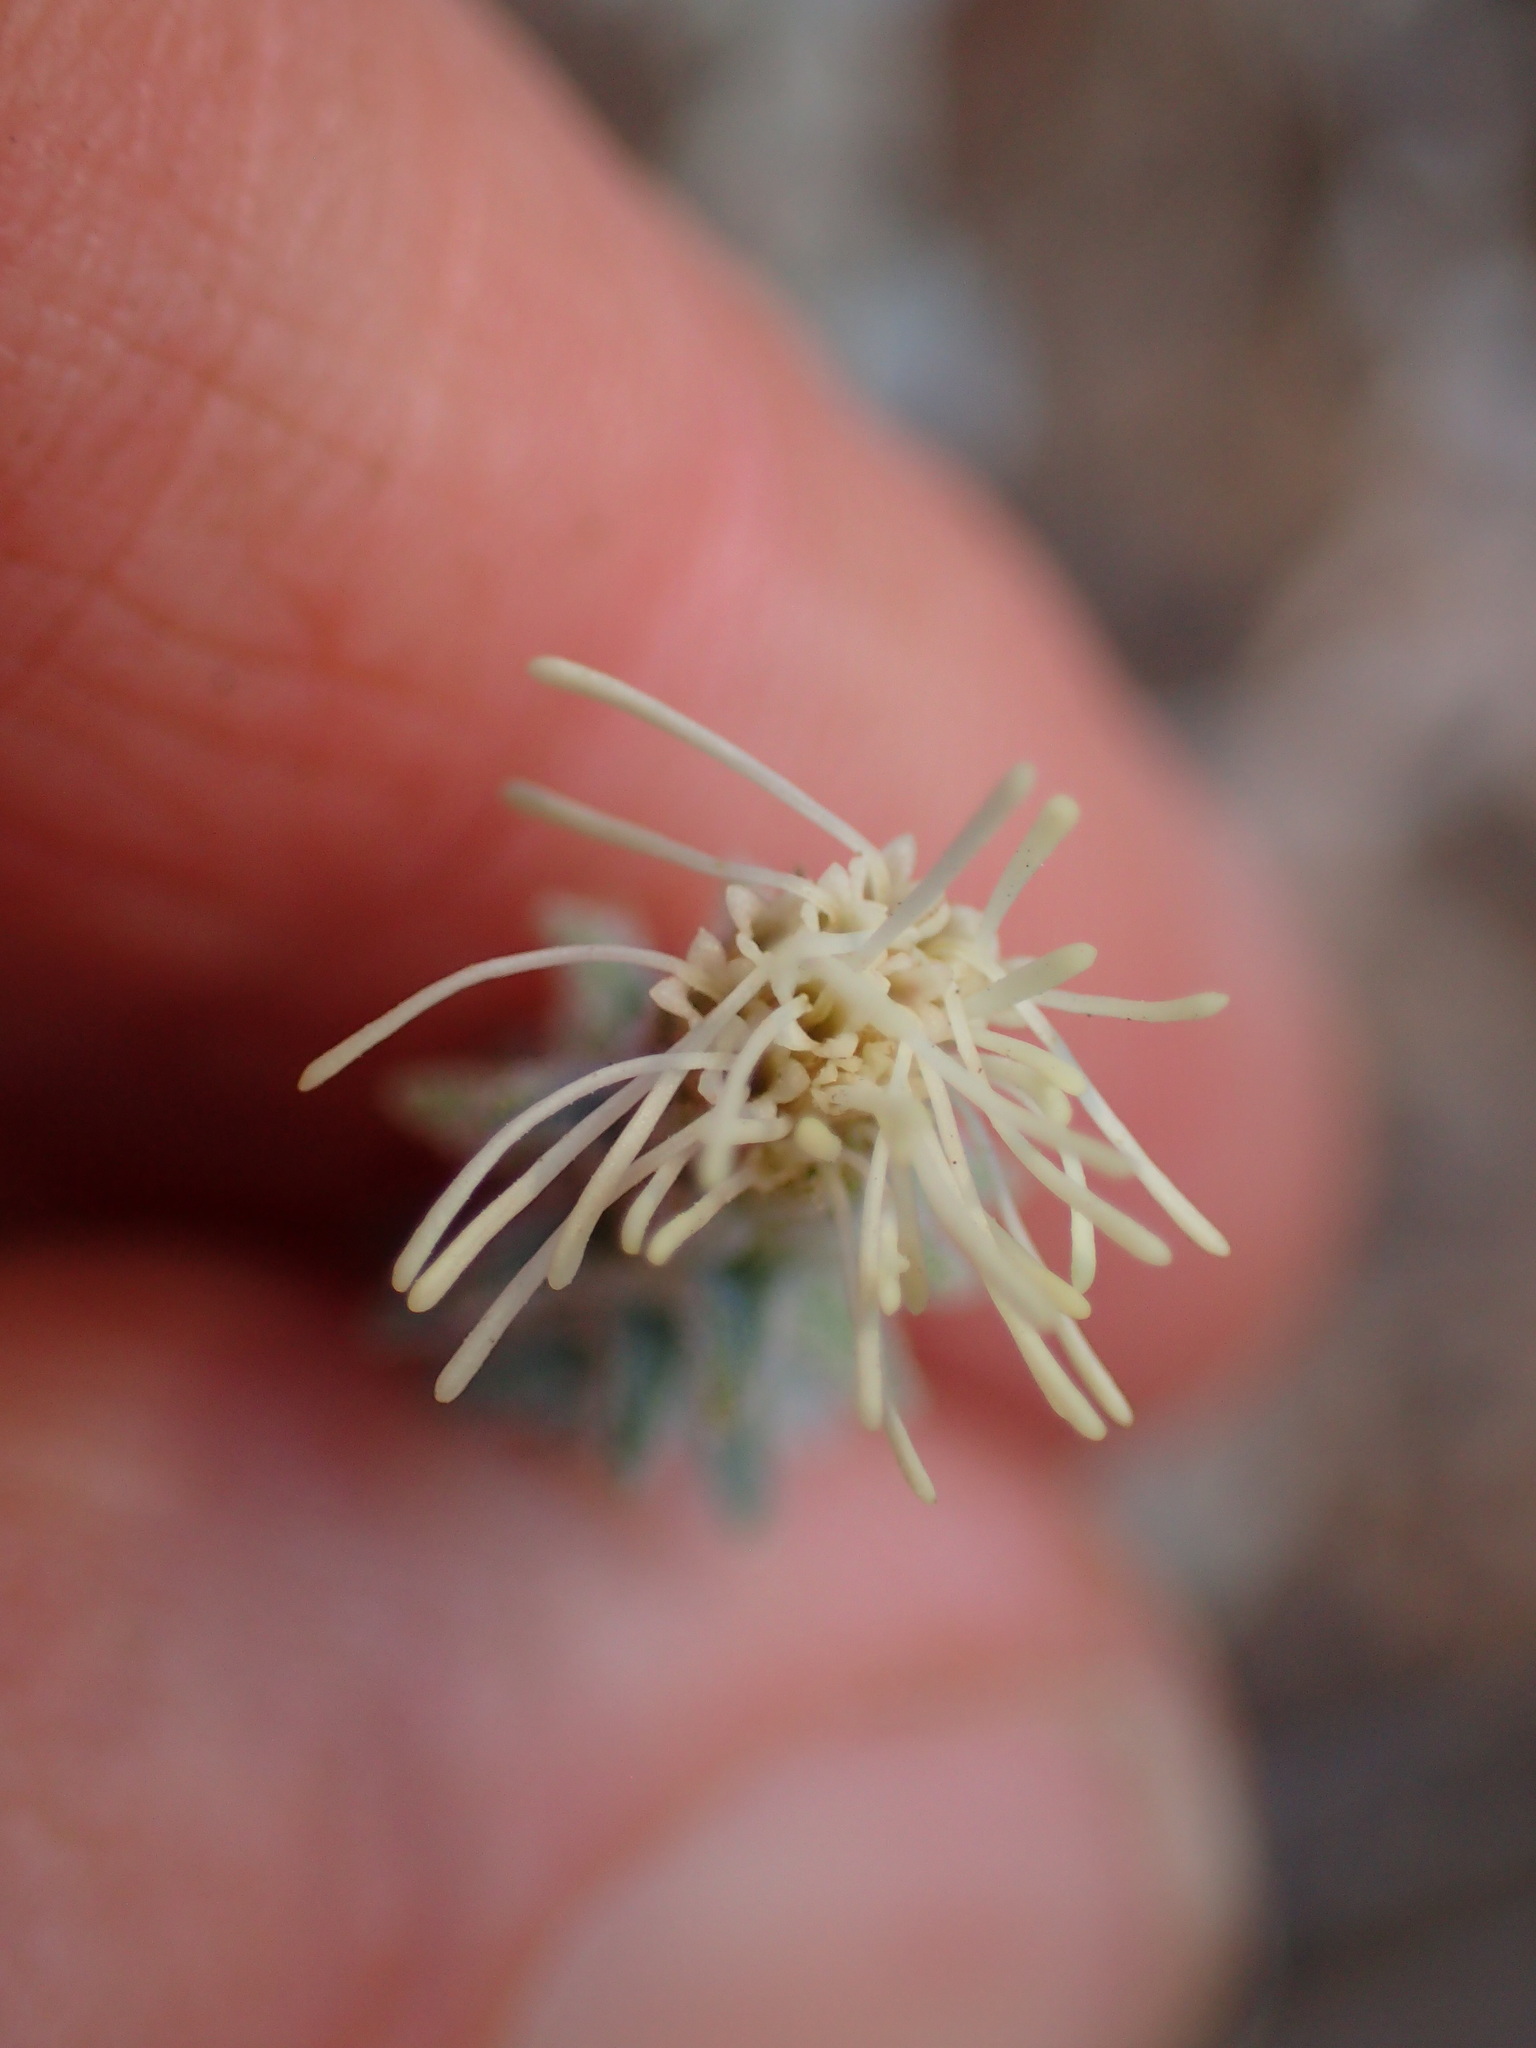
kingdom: Plantae
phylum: Tracheophyta
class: Magnoliopsida
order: Asterales
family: Asteraceae
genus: Brickellia
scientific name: Brickellia nevinii
